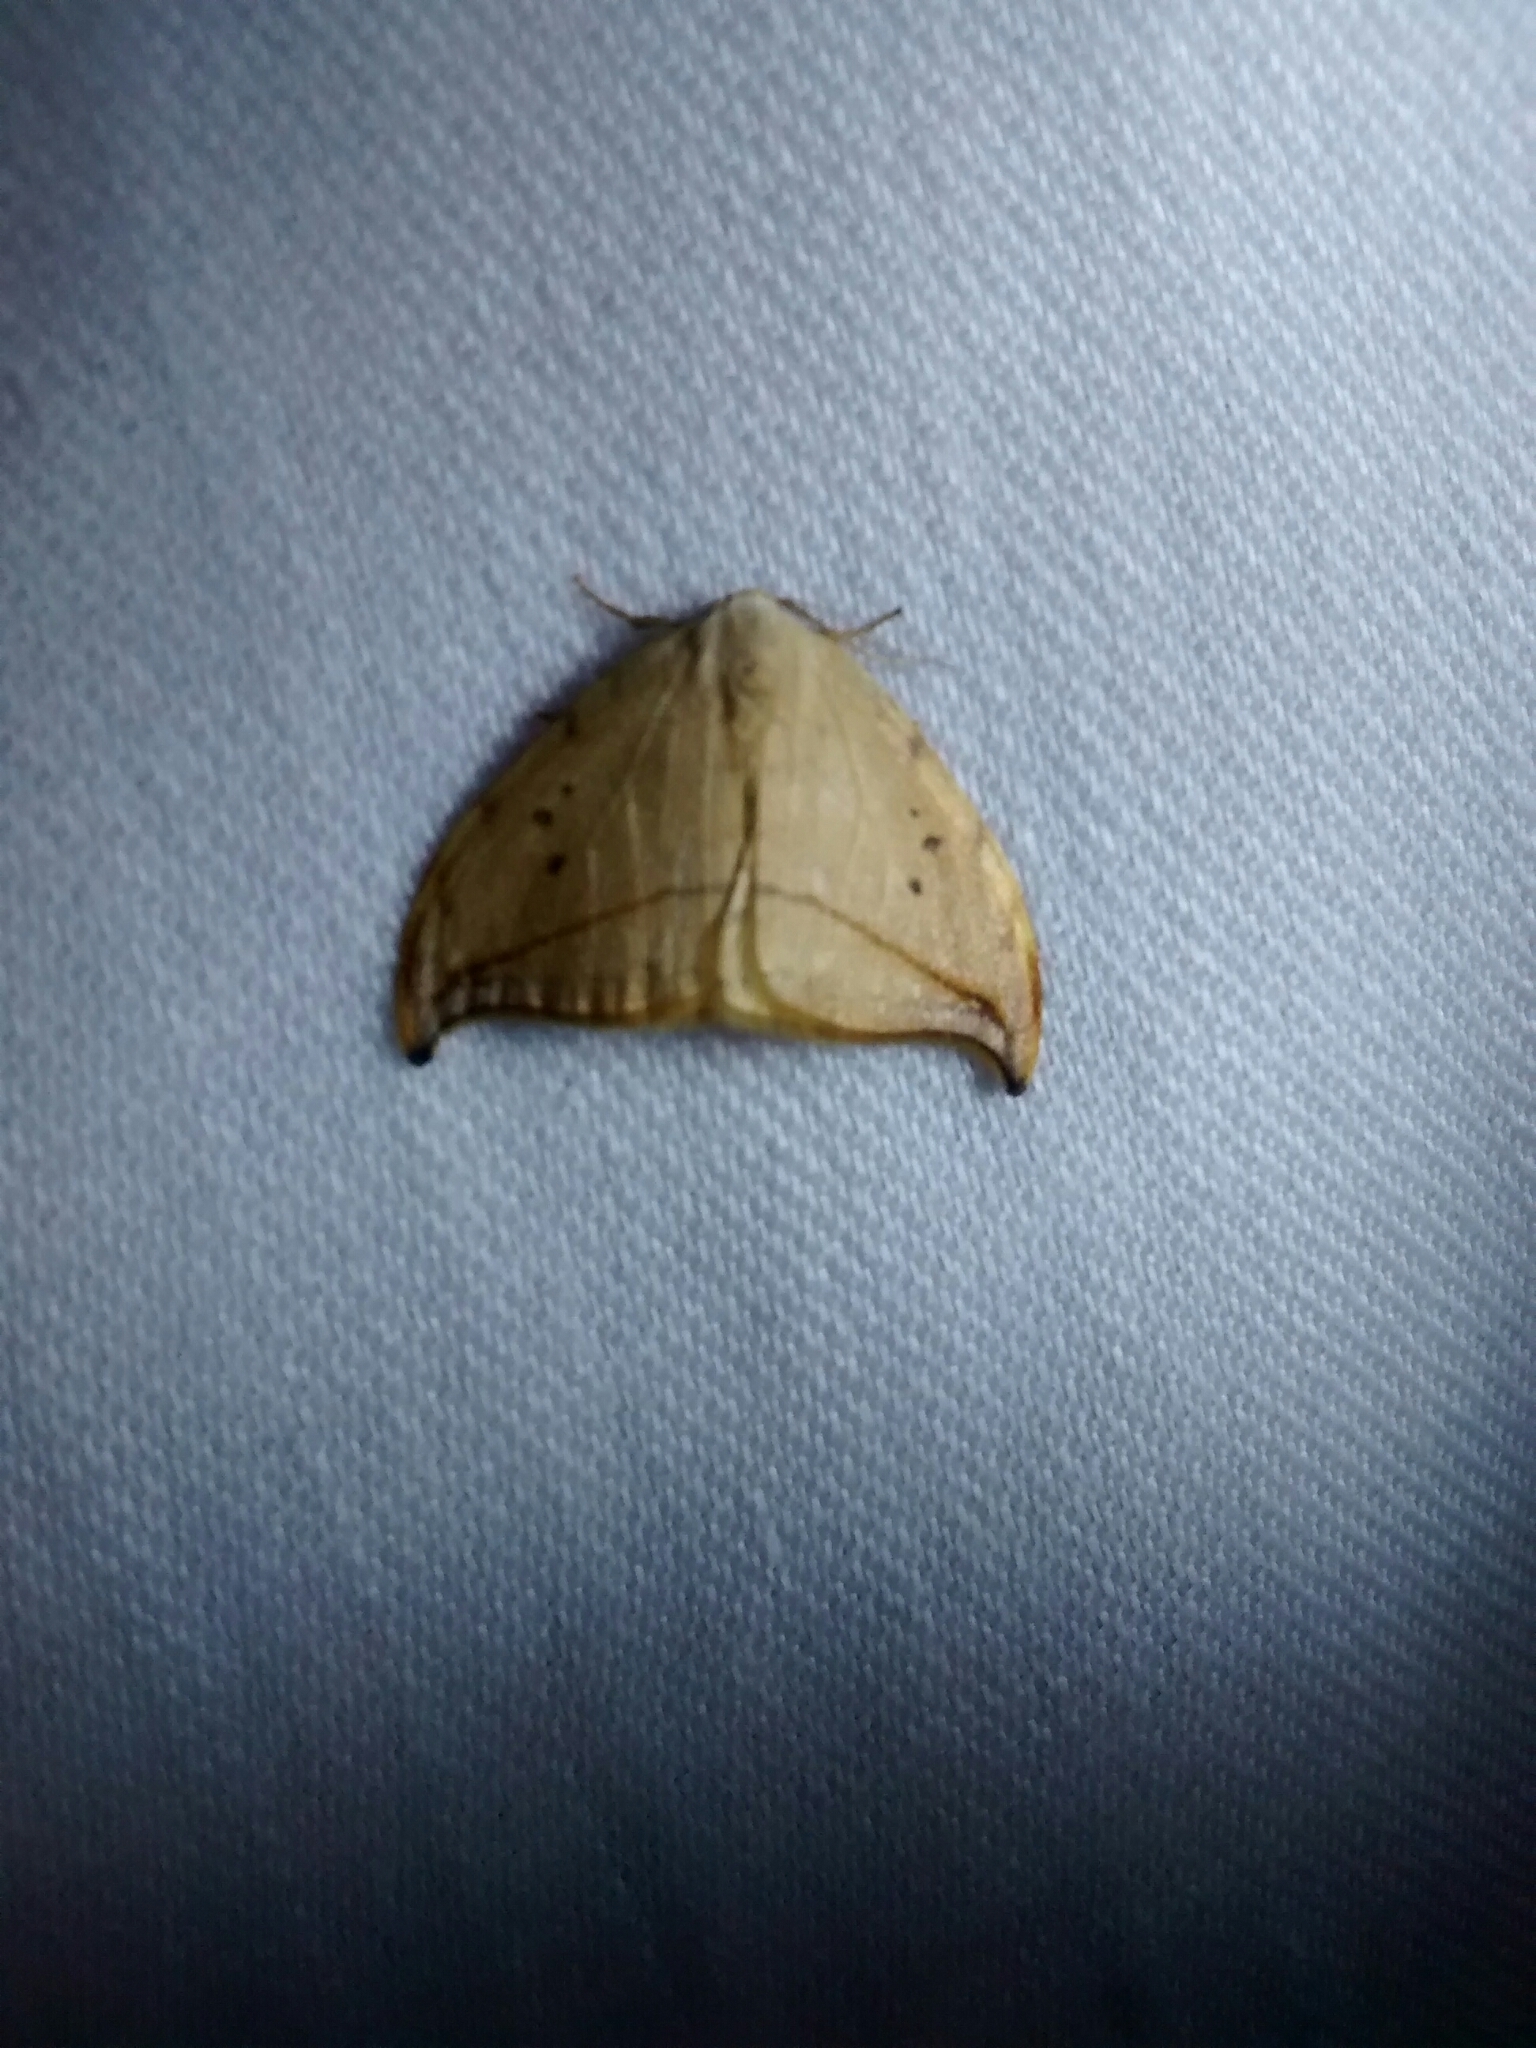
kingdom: Animalia
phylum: Arthropoda
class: Insecta
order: Lepidoptera
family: Drepanidae
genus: Drepana
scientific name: Drepana arcuata
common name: Arched hooktip moth
